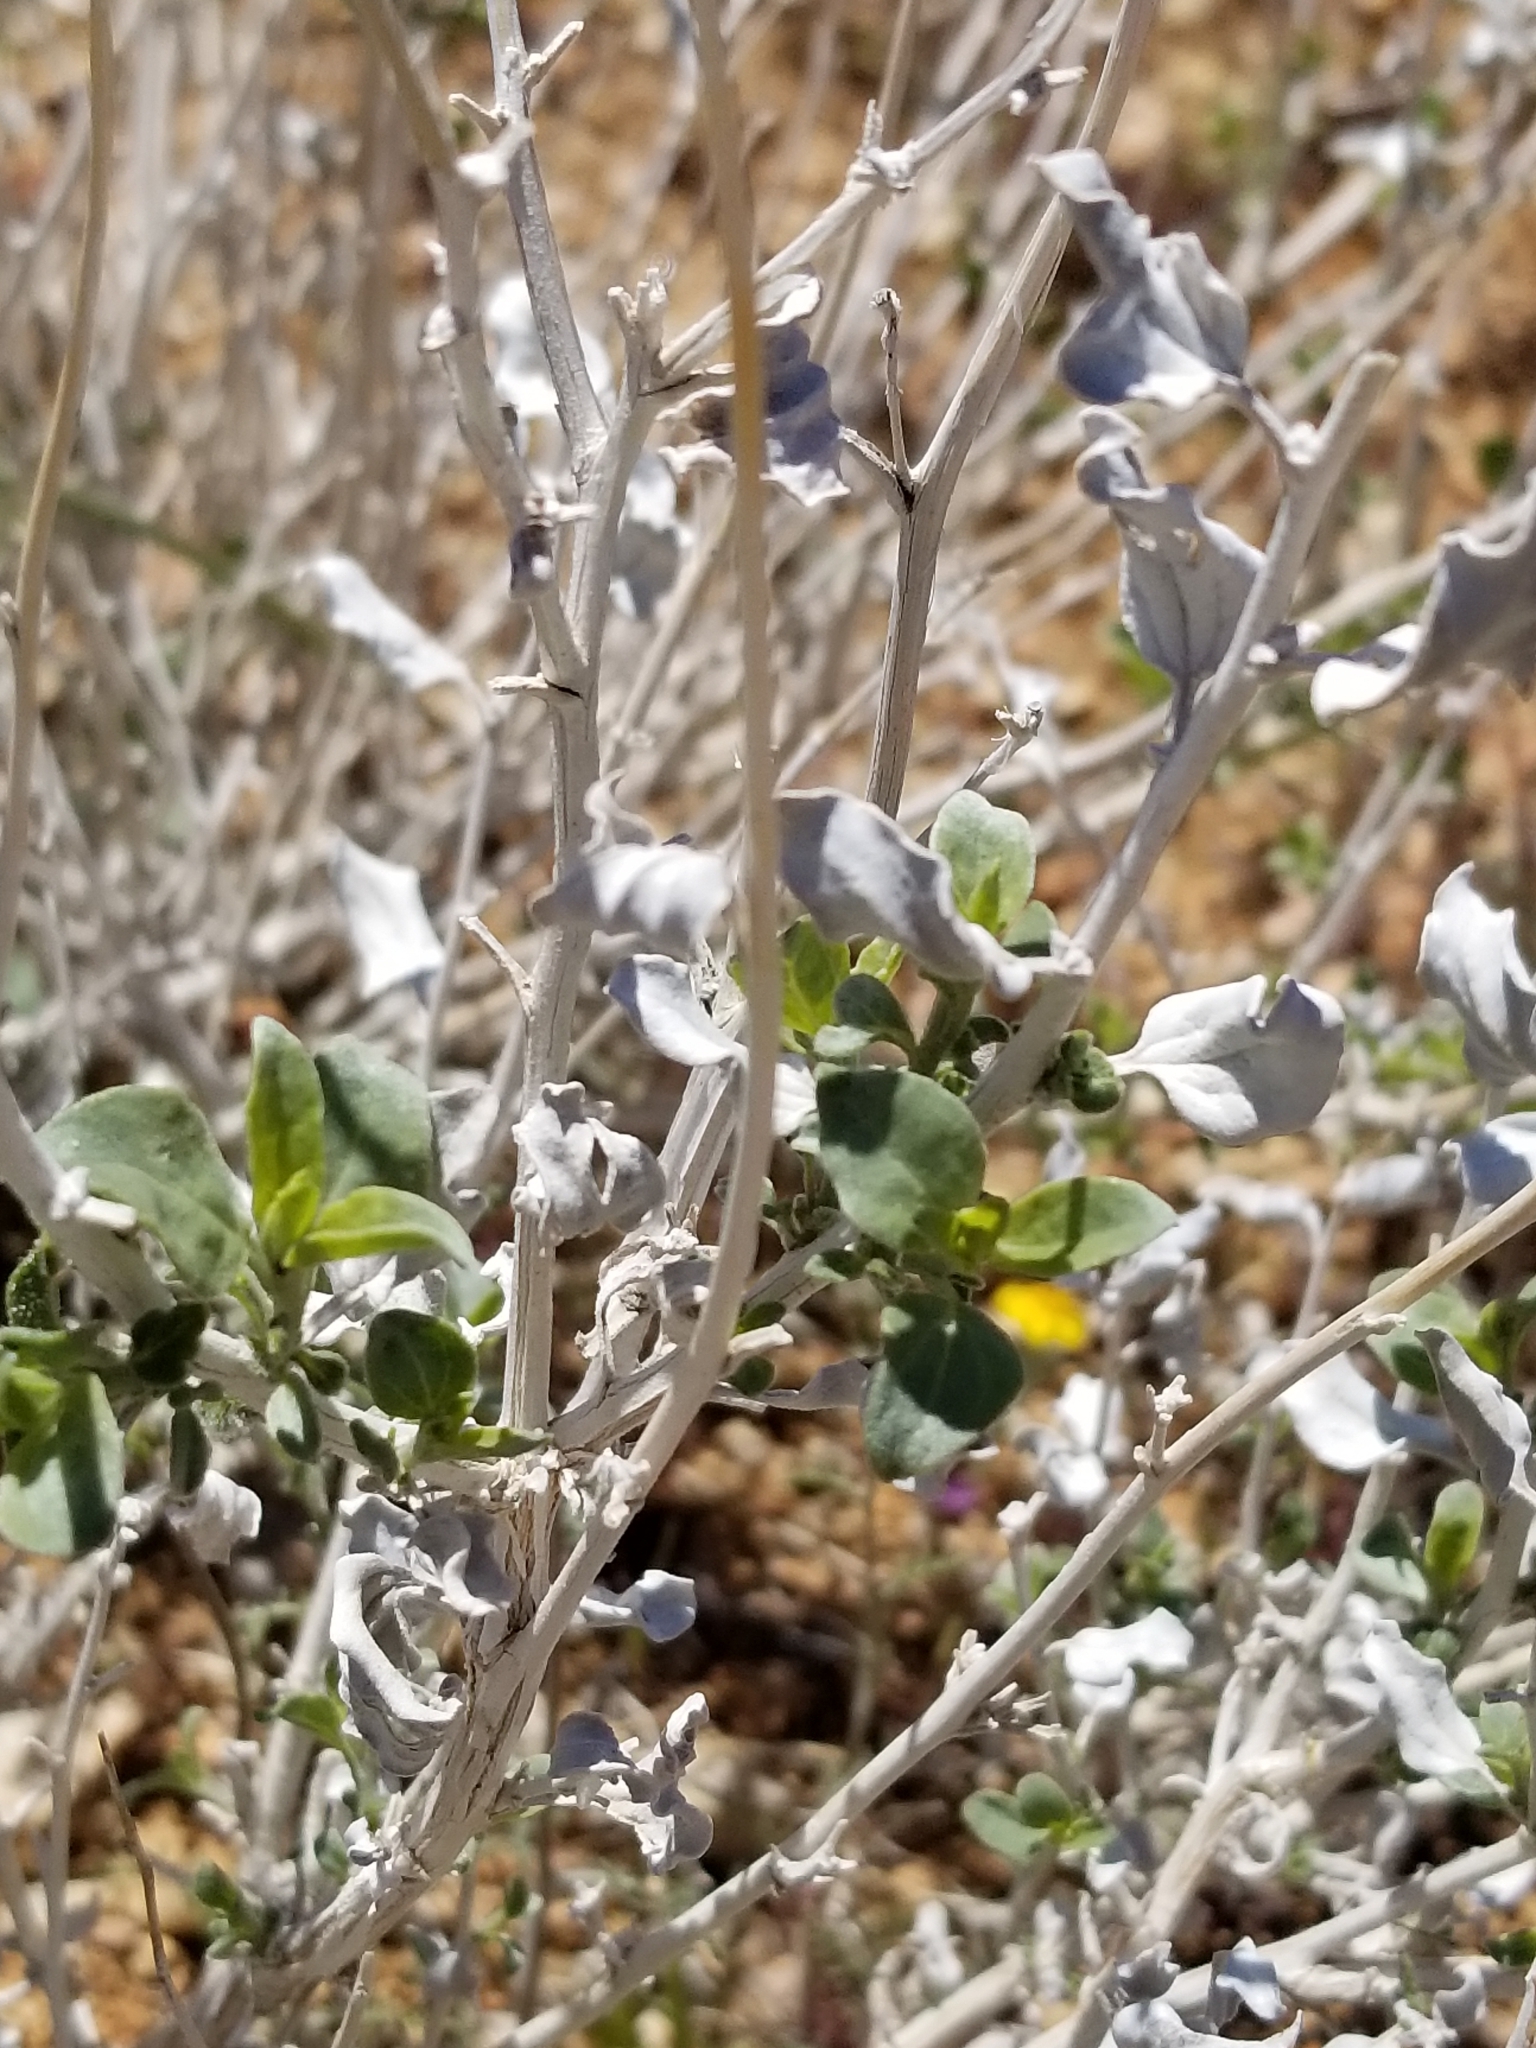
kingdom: Plantae
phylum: Tracheophyta
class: Magnoliopsida
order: Asterales
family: Asteraceae
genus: Encelia
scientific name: Encelia actoni
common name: Acton encelia
